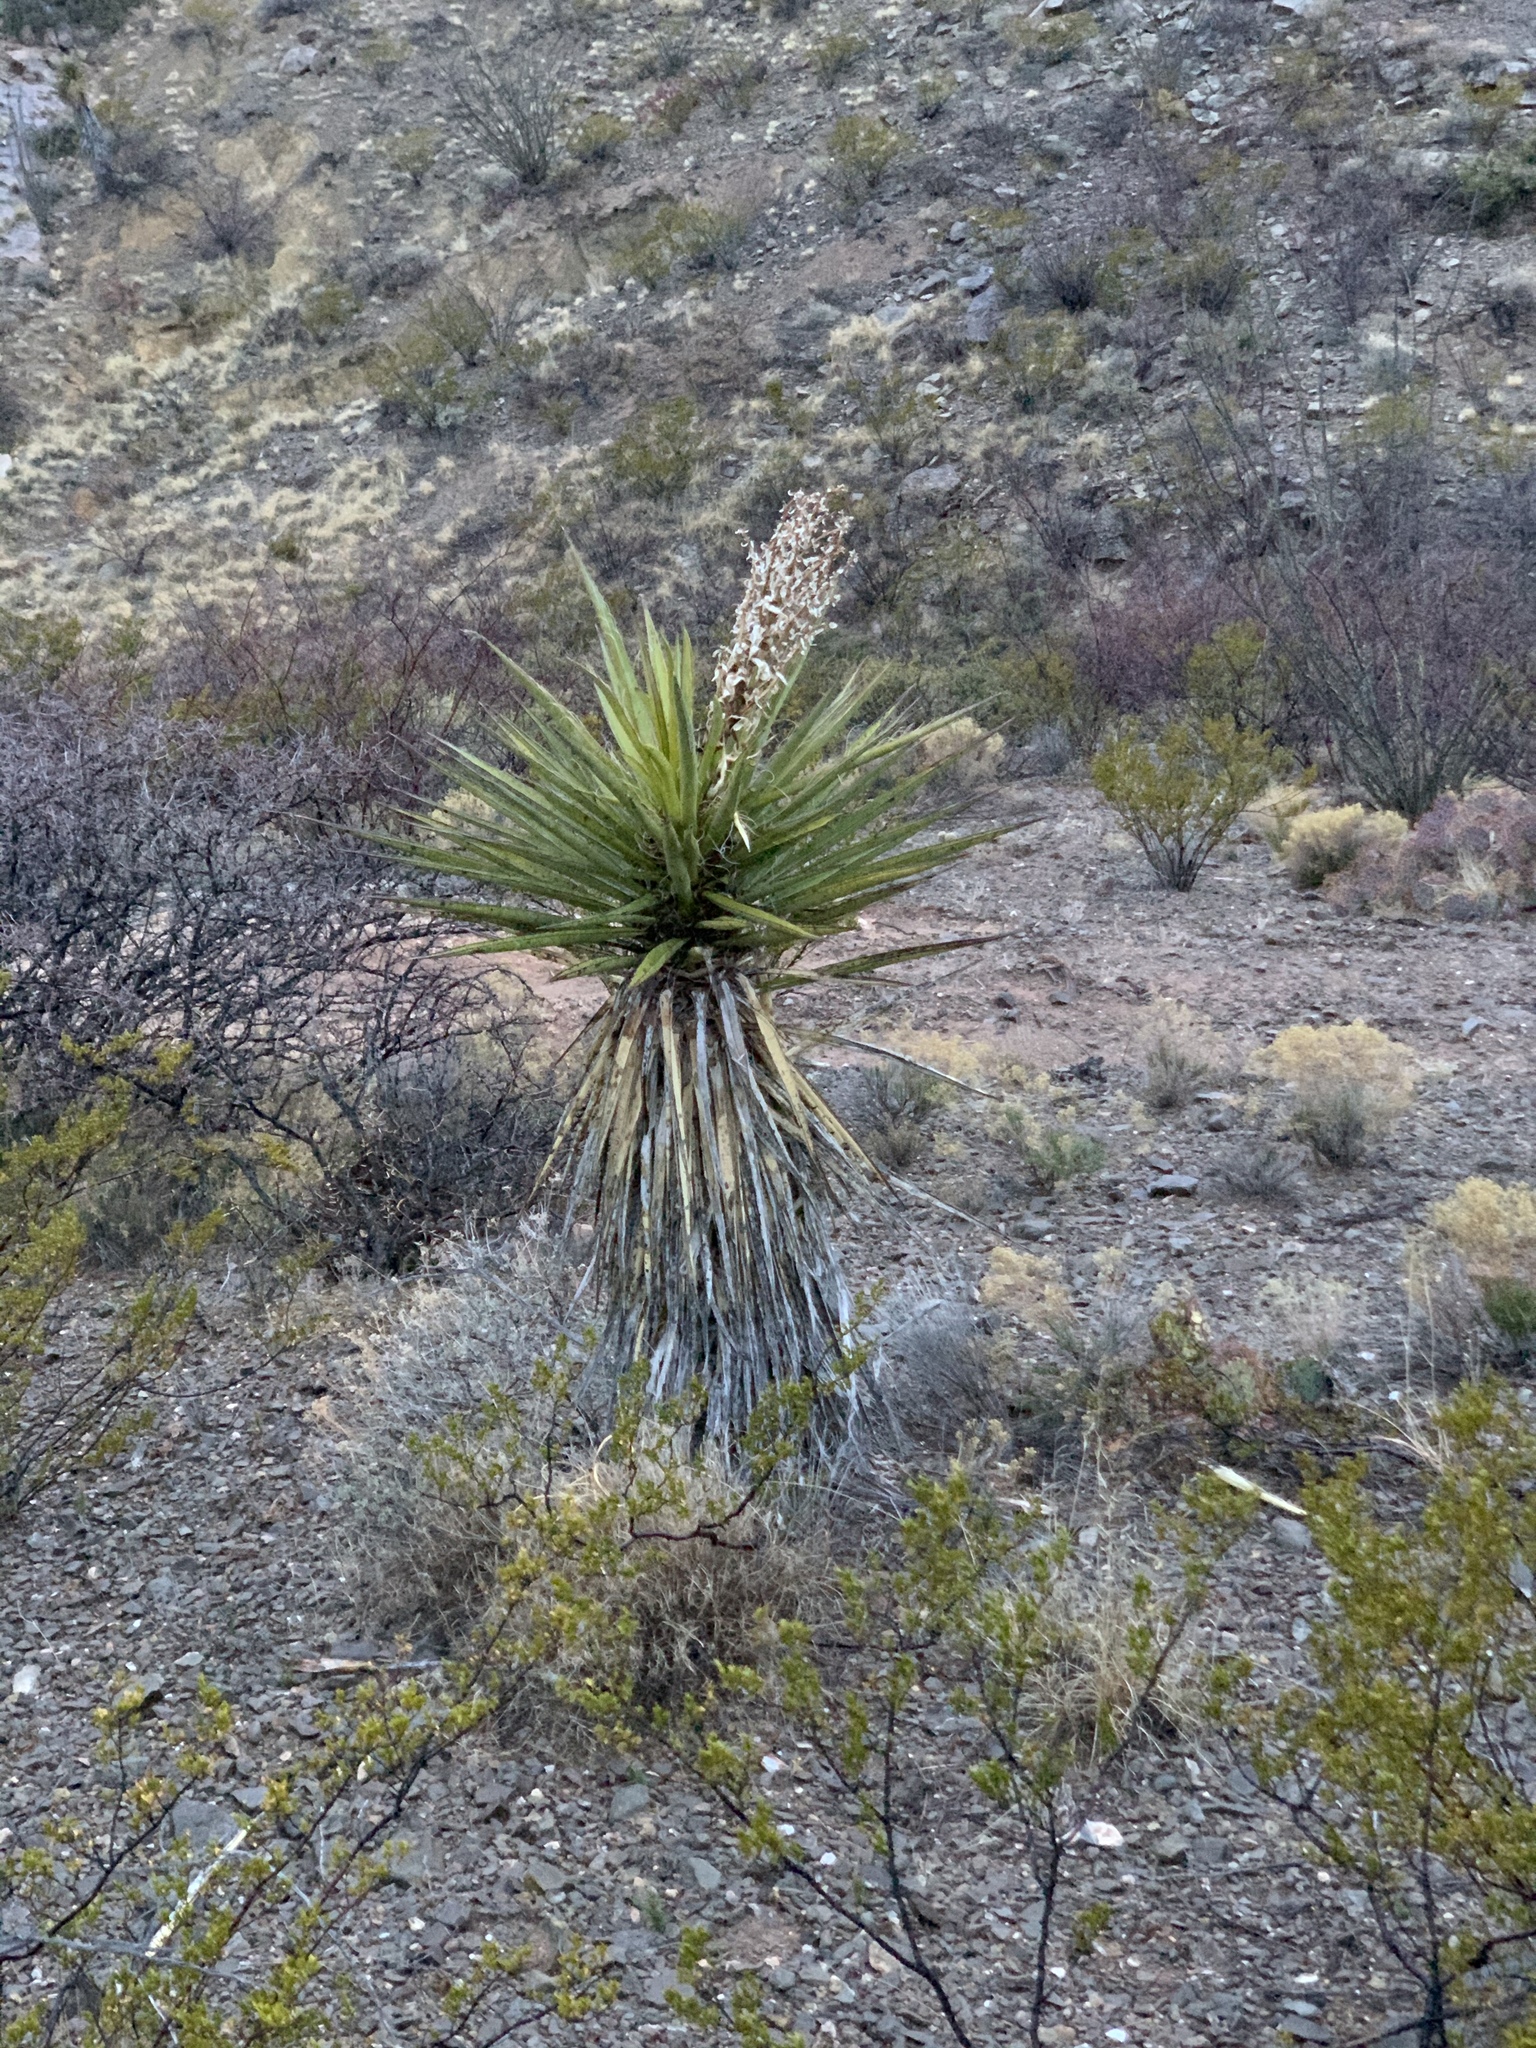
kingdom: Plantae
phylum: Tracheophyta
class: Liliopsida
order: Asparagales
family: Asparagaceae
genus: Yucca
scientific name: Yucca treculiana
